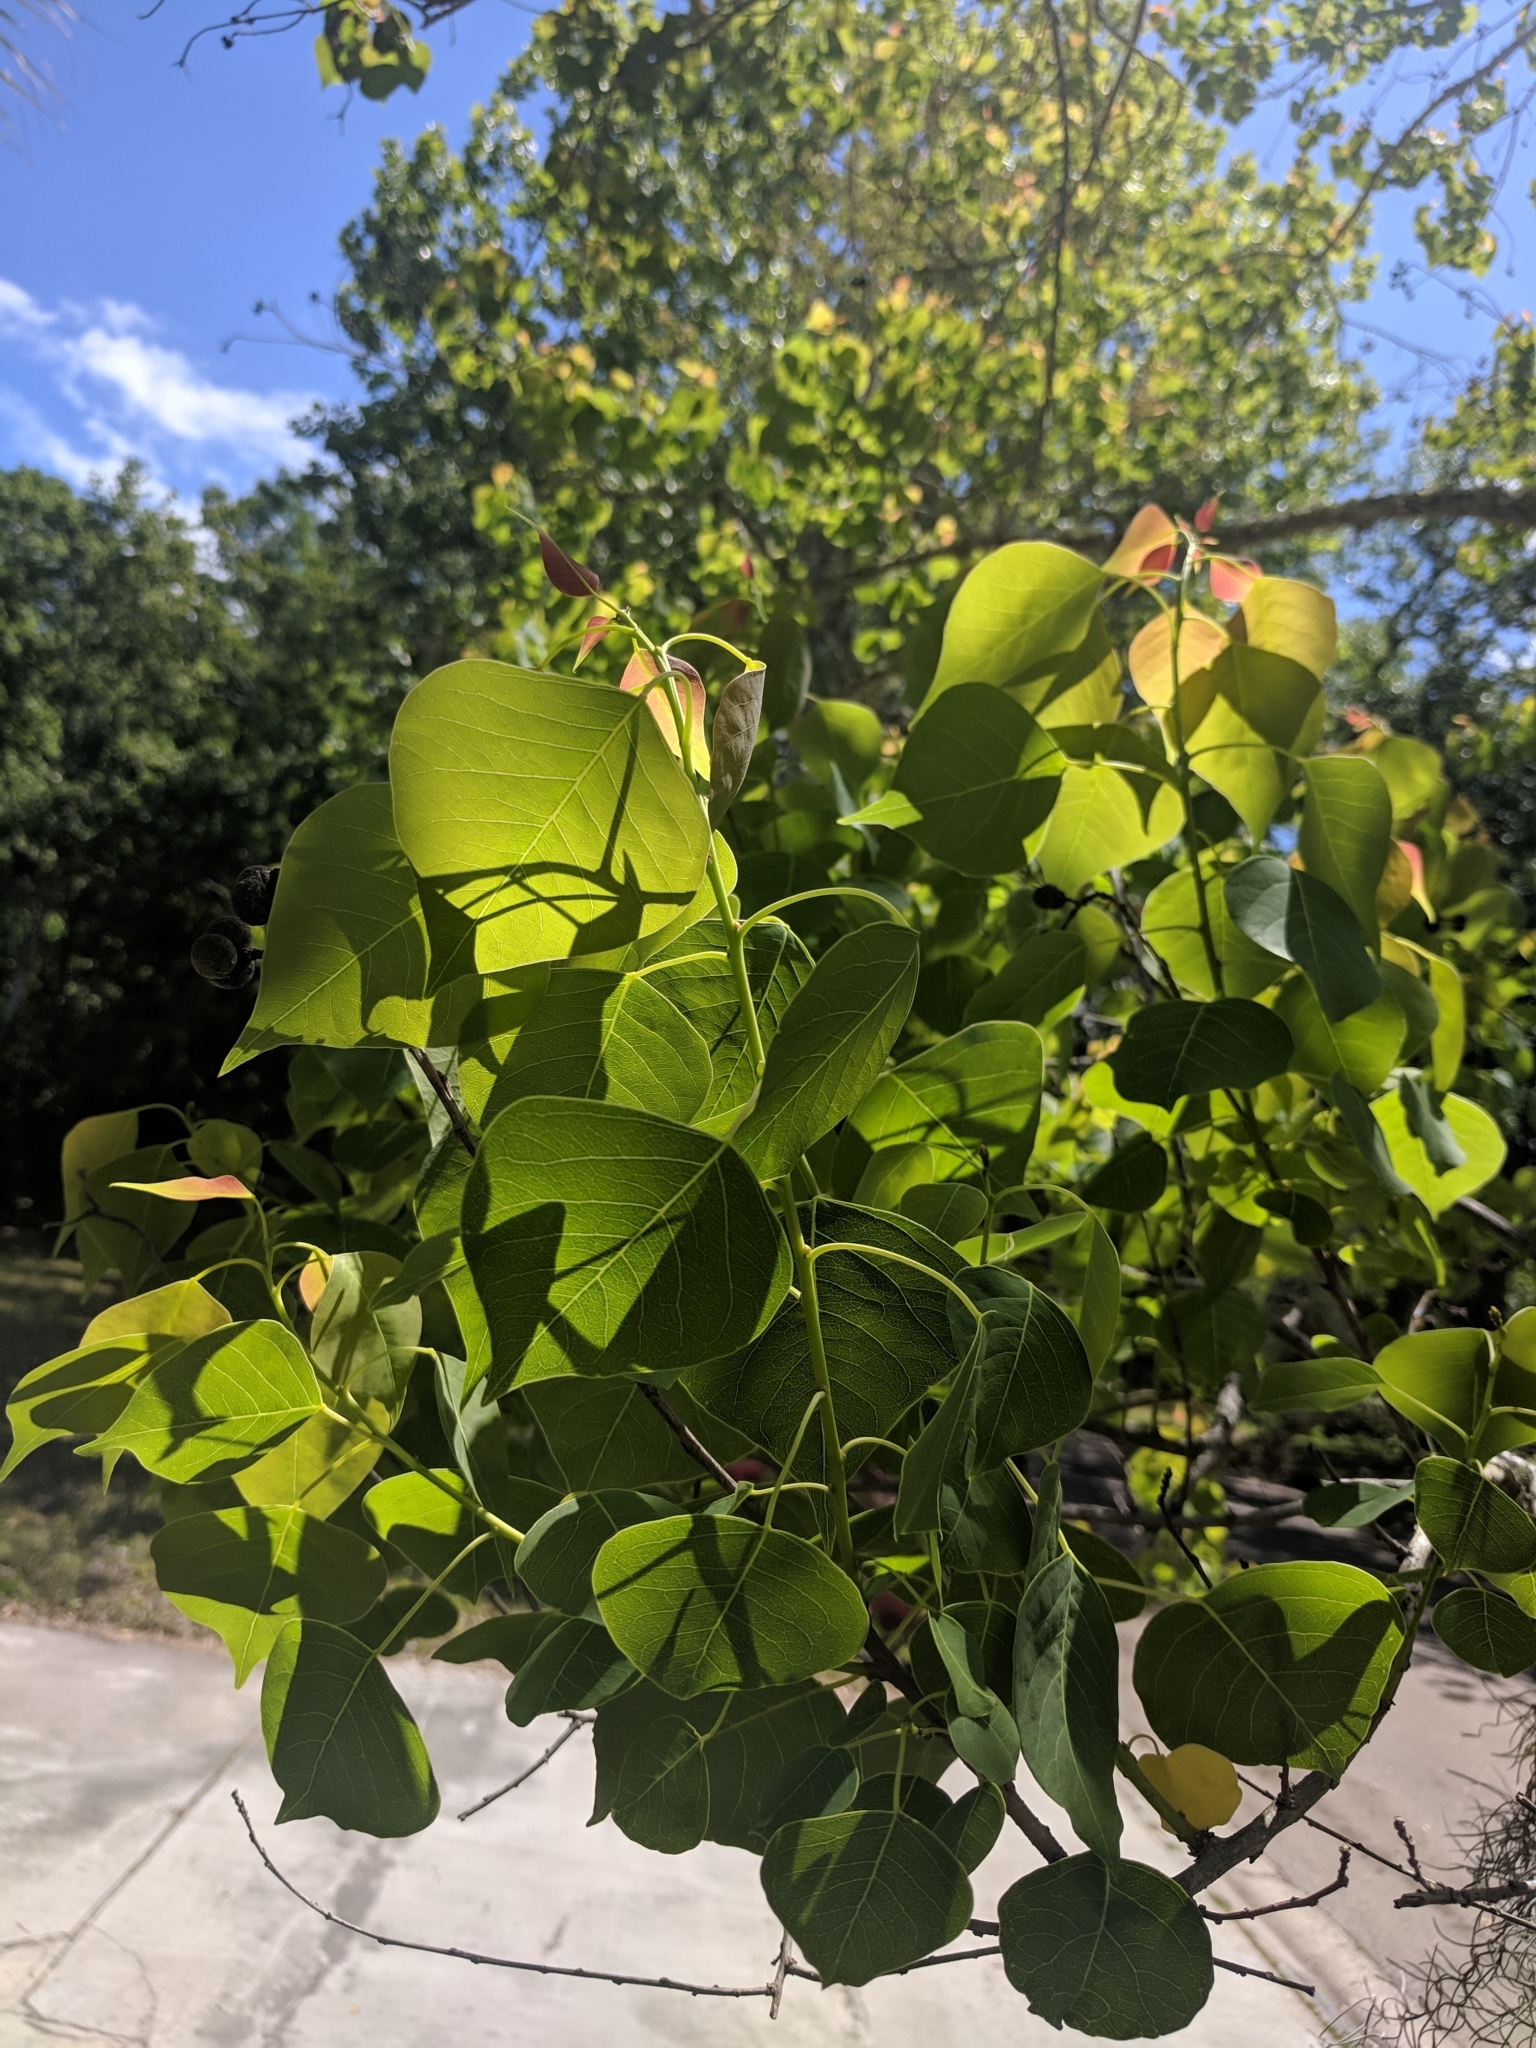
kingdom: Plantae
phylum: Tracheophyta
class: Magnoliopsida
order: Malpighiales
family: Euphorbiaceae
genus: Triadica
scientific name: Triadica sebifera
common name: Chinese tallow
